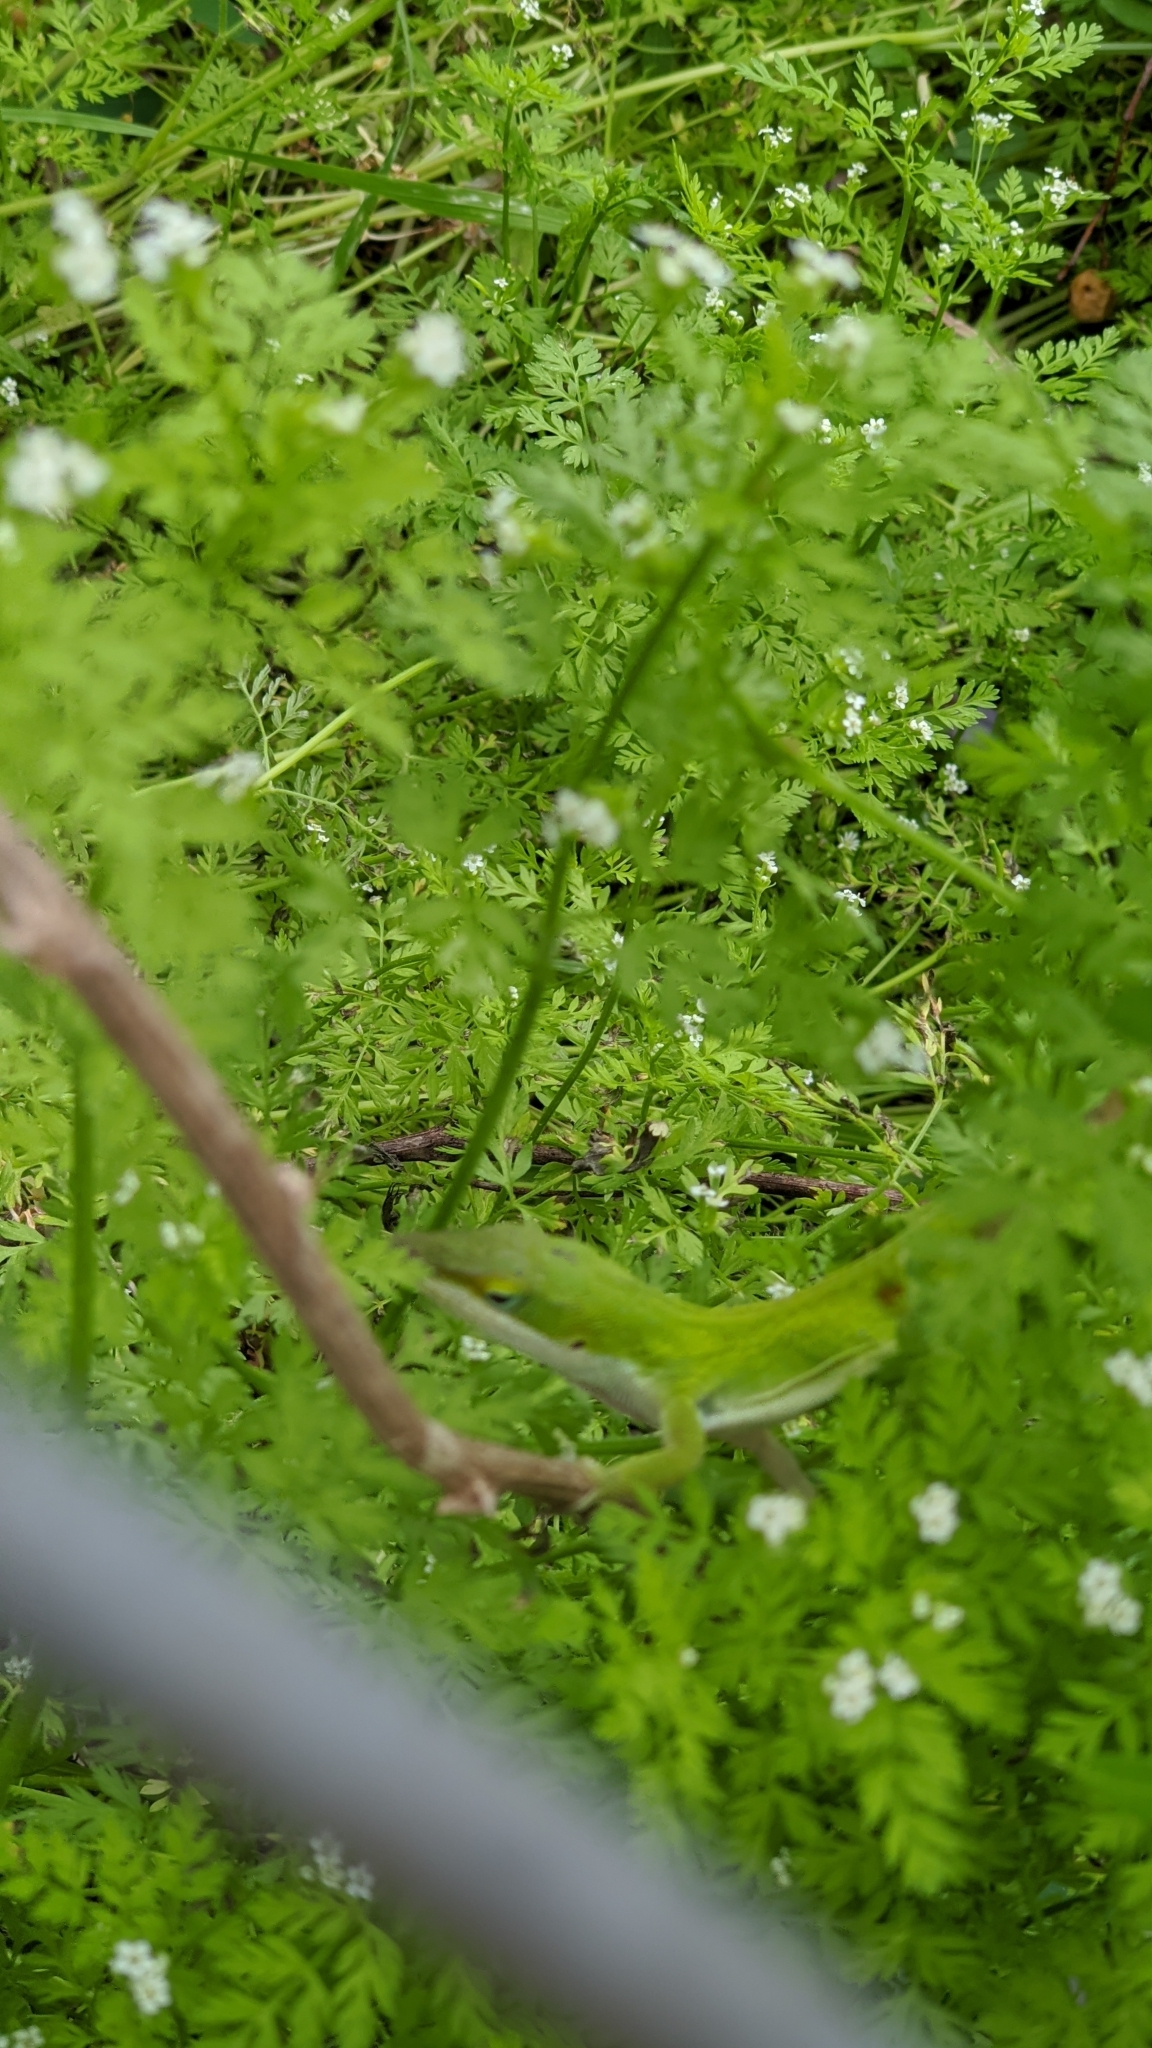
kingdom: Animalia
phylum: Chordata
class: Squamata
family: Dactyloidae
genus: Anolis
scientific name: Anolis carolinensis
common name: Green anole
